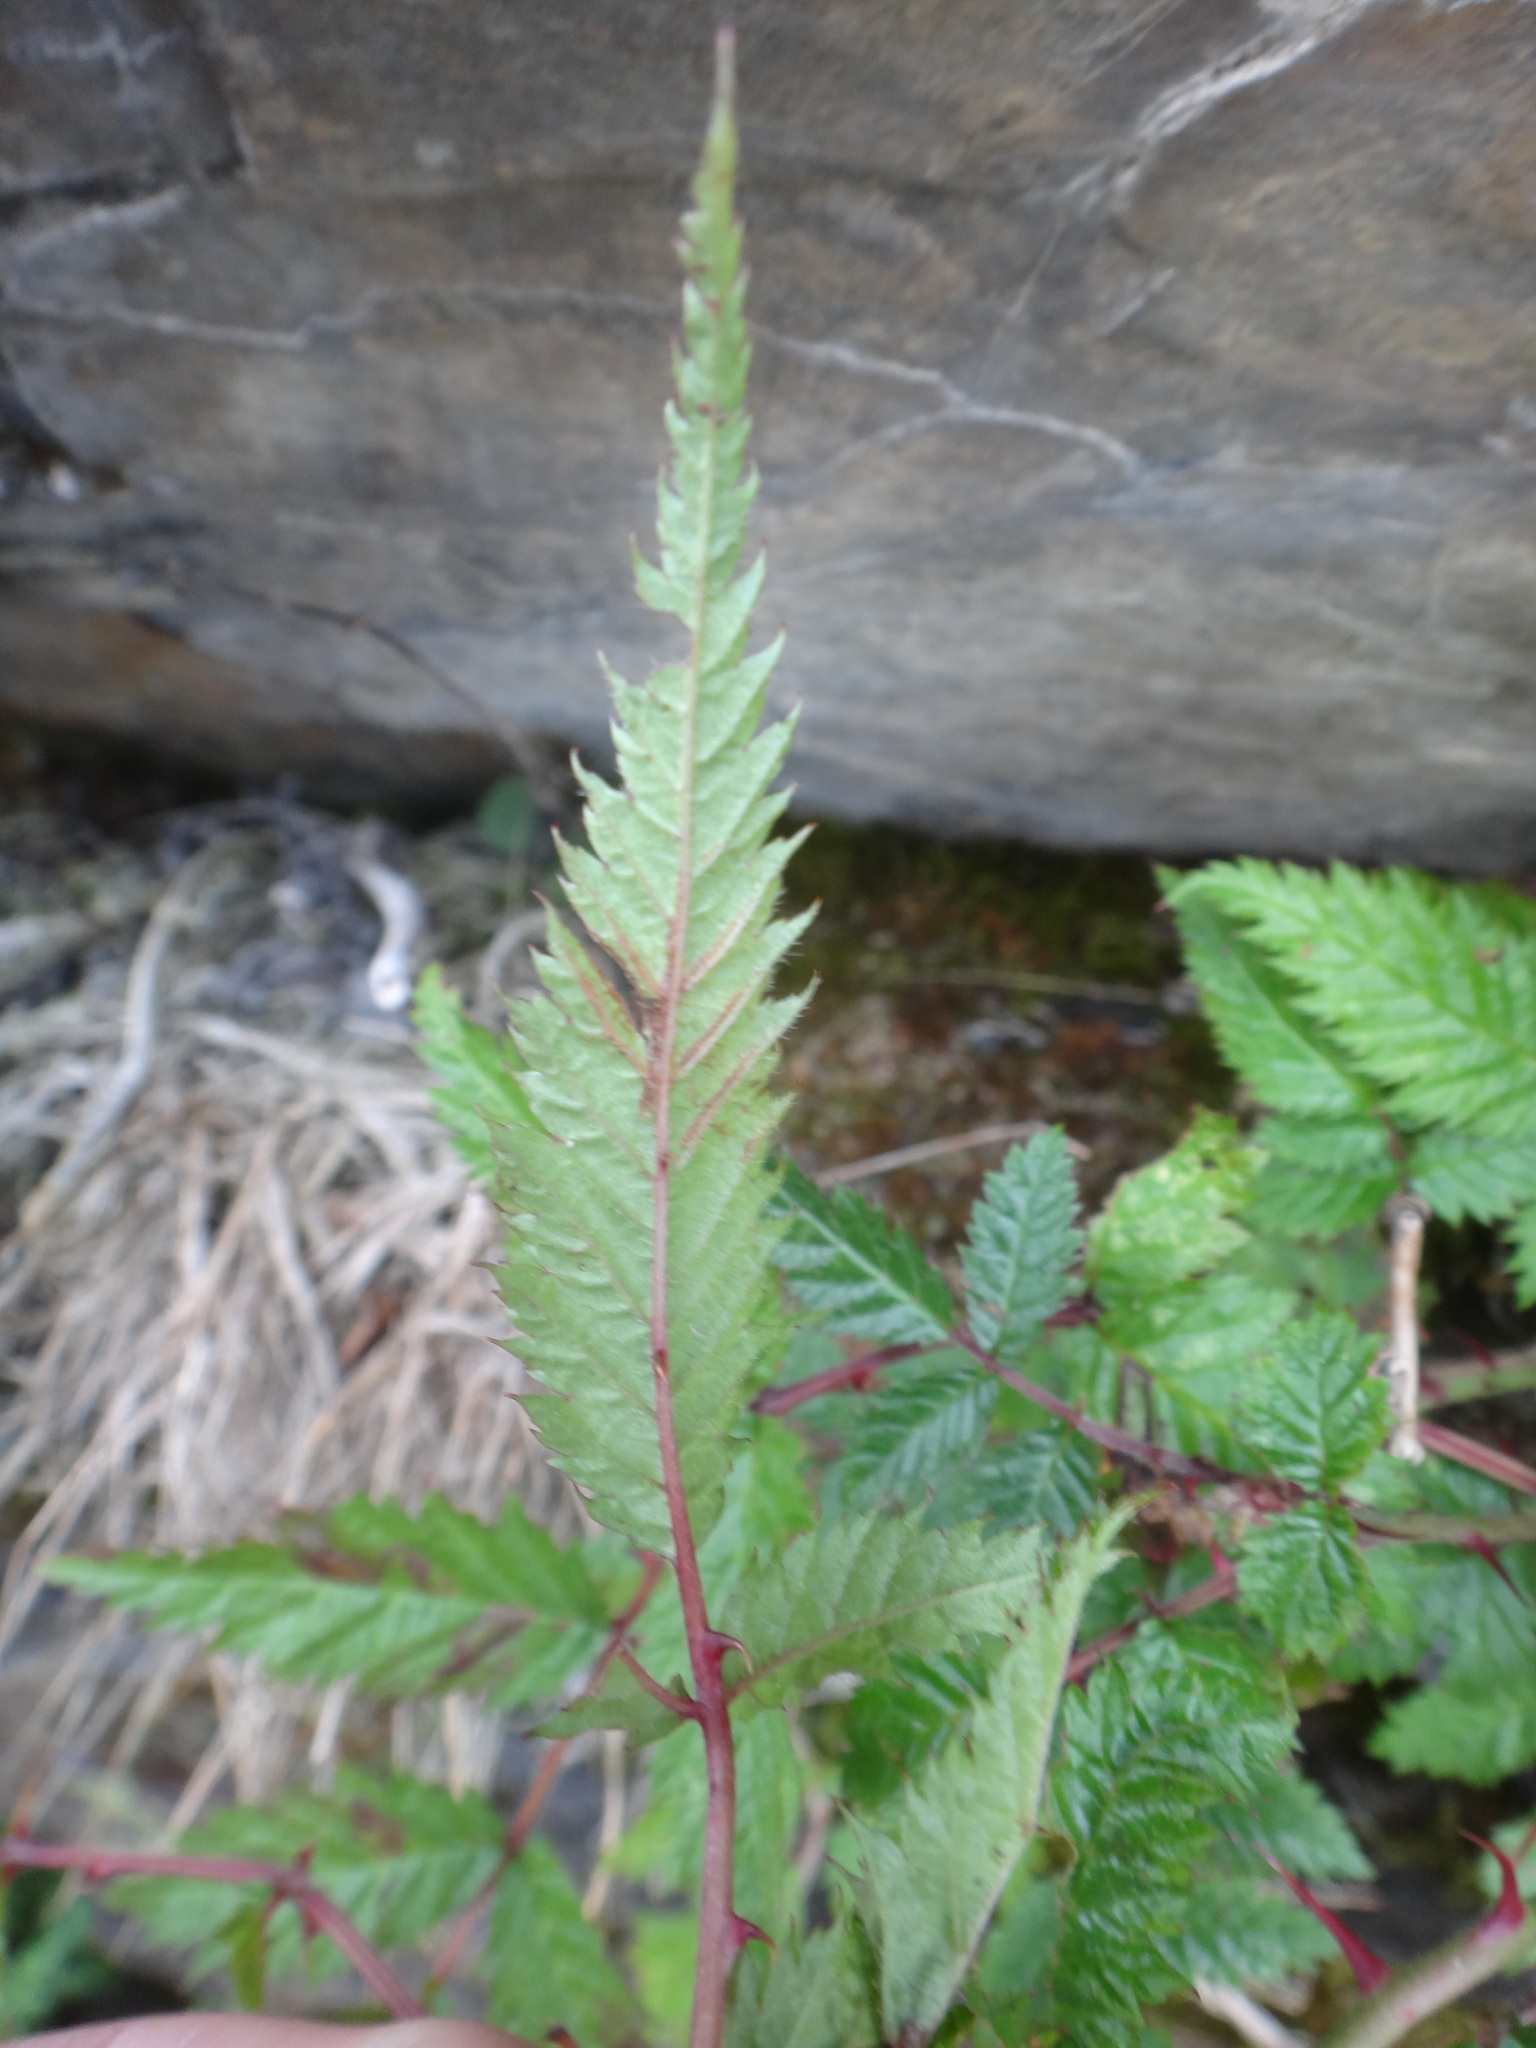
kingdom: Plantae
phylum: Tracheophyta
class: Magnoliopsida
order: Rosales
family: Rosaceae
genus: Rubus
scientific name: Rubus pungens
